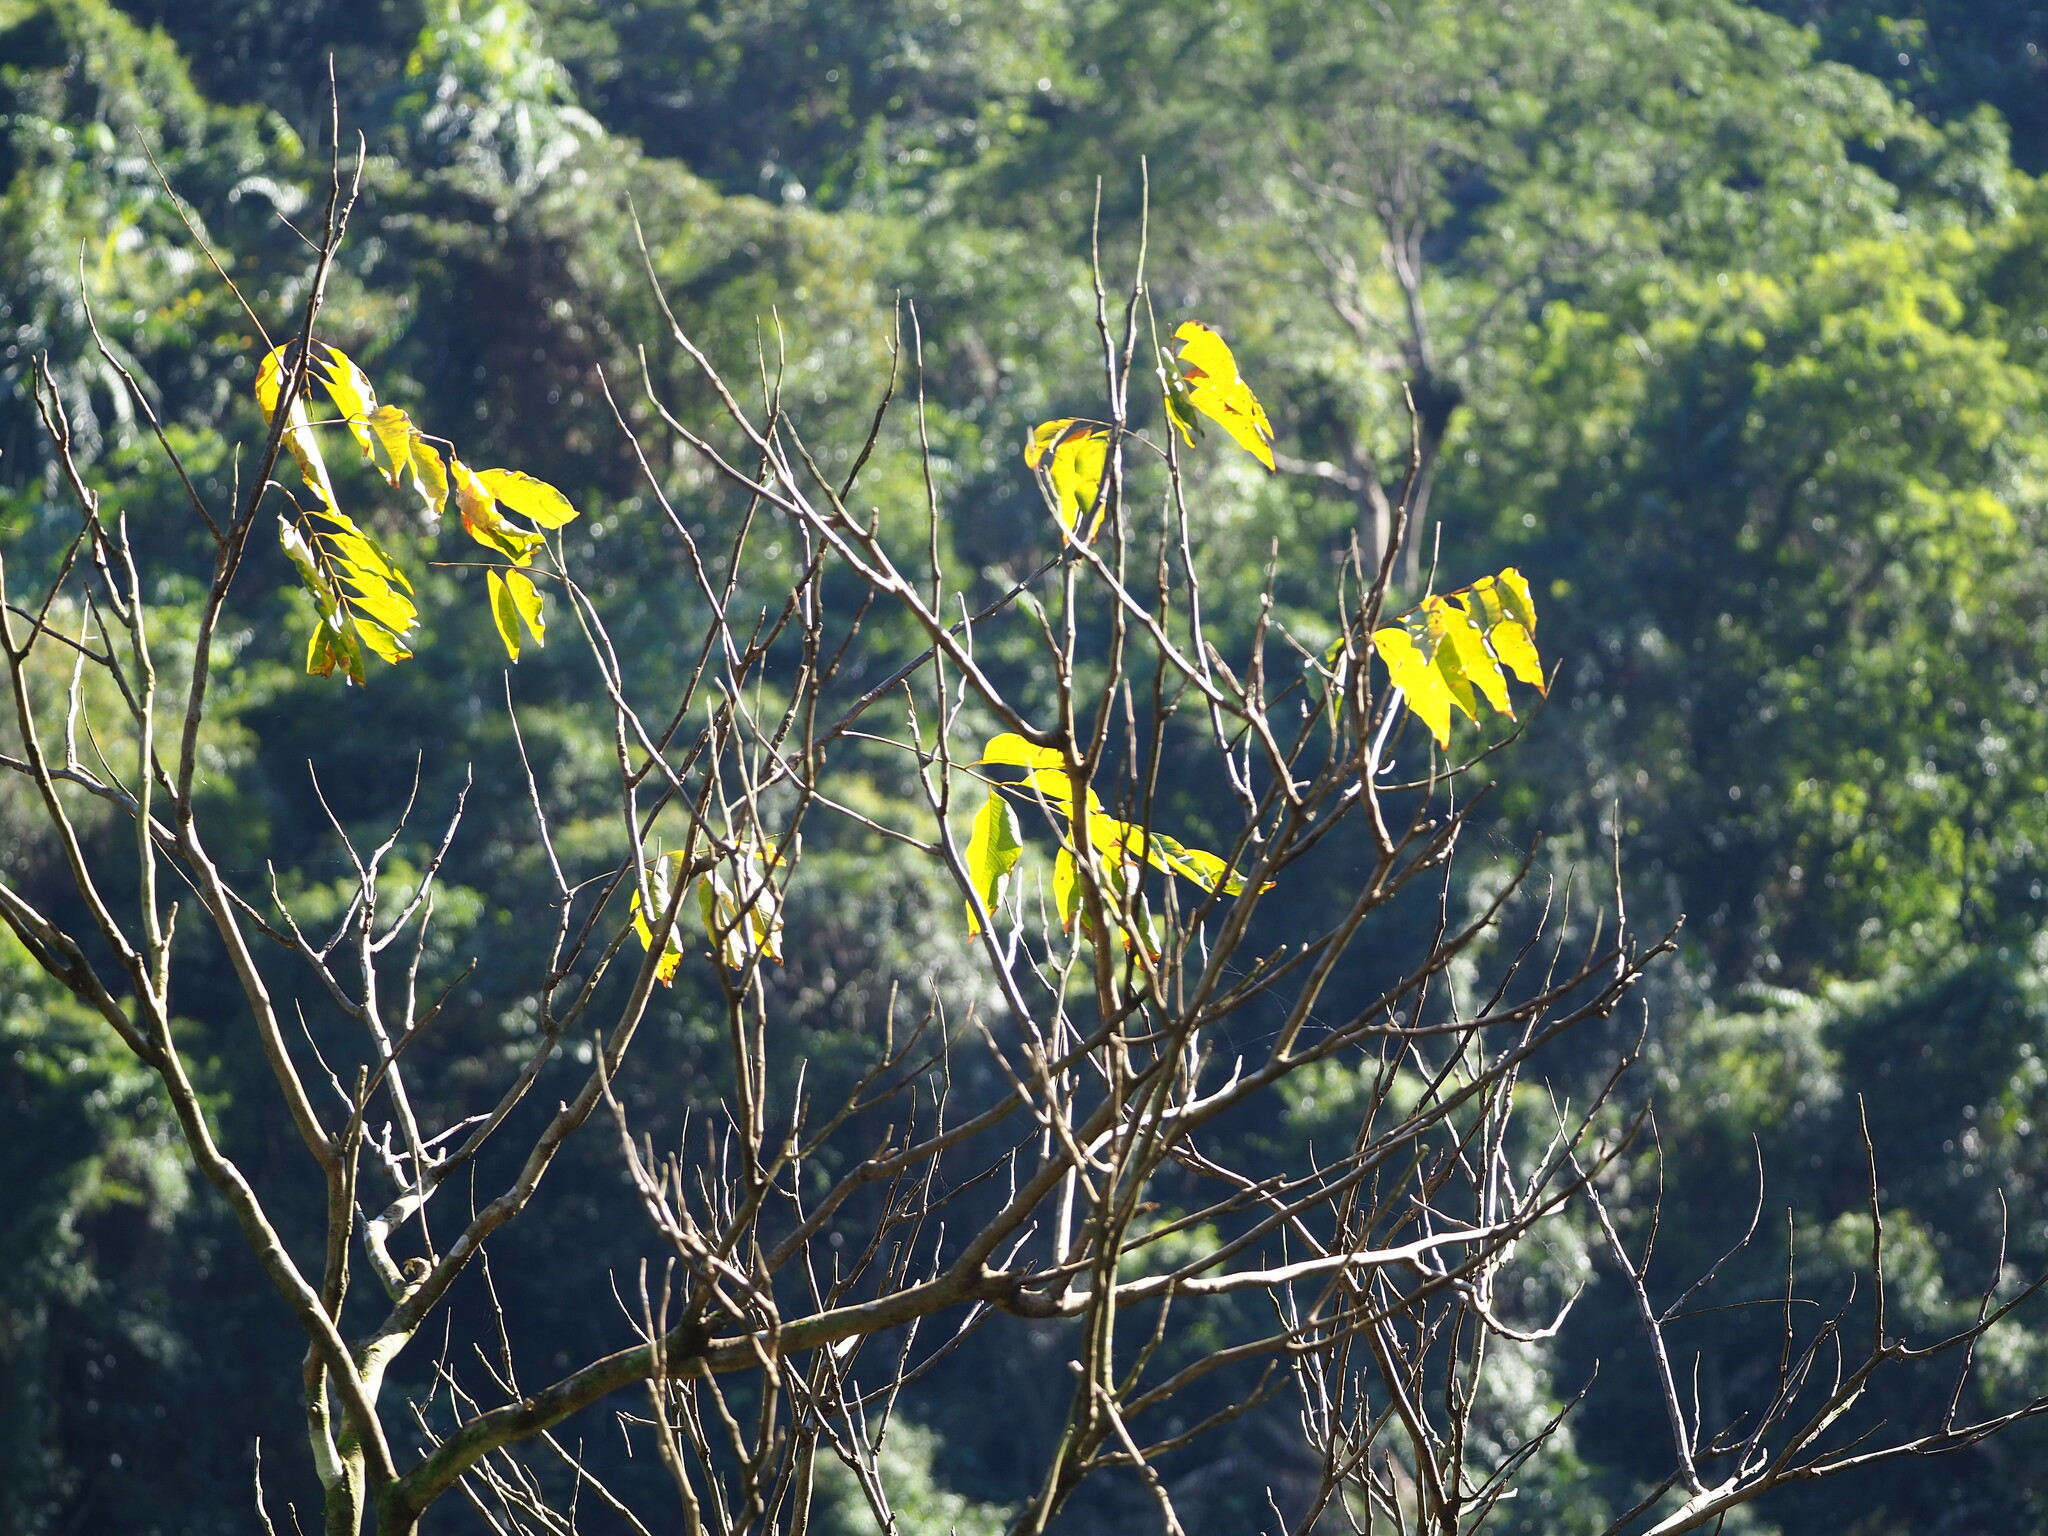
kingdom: Plantae
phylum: Tracheophyta
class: Magnoliopsida
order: Sapindales
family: Sapindaceae
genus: Sapindus
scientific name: Sapindus mukorossi
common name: Chinese soapberry
